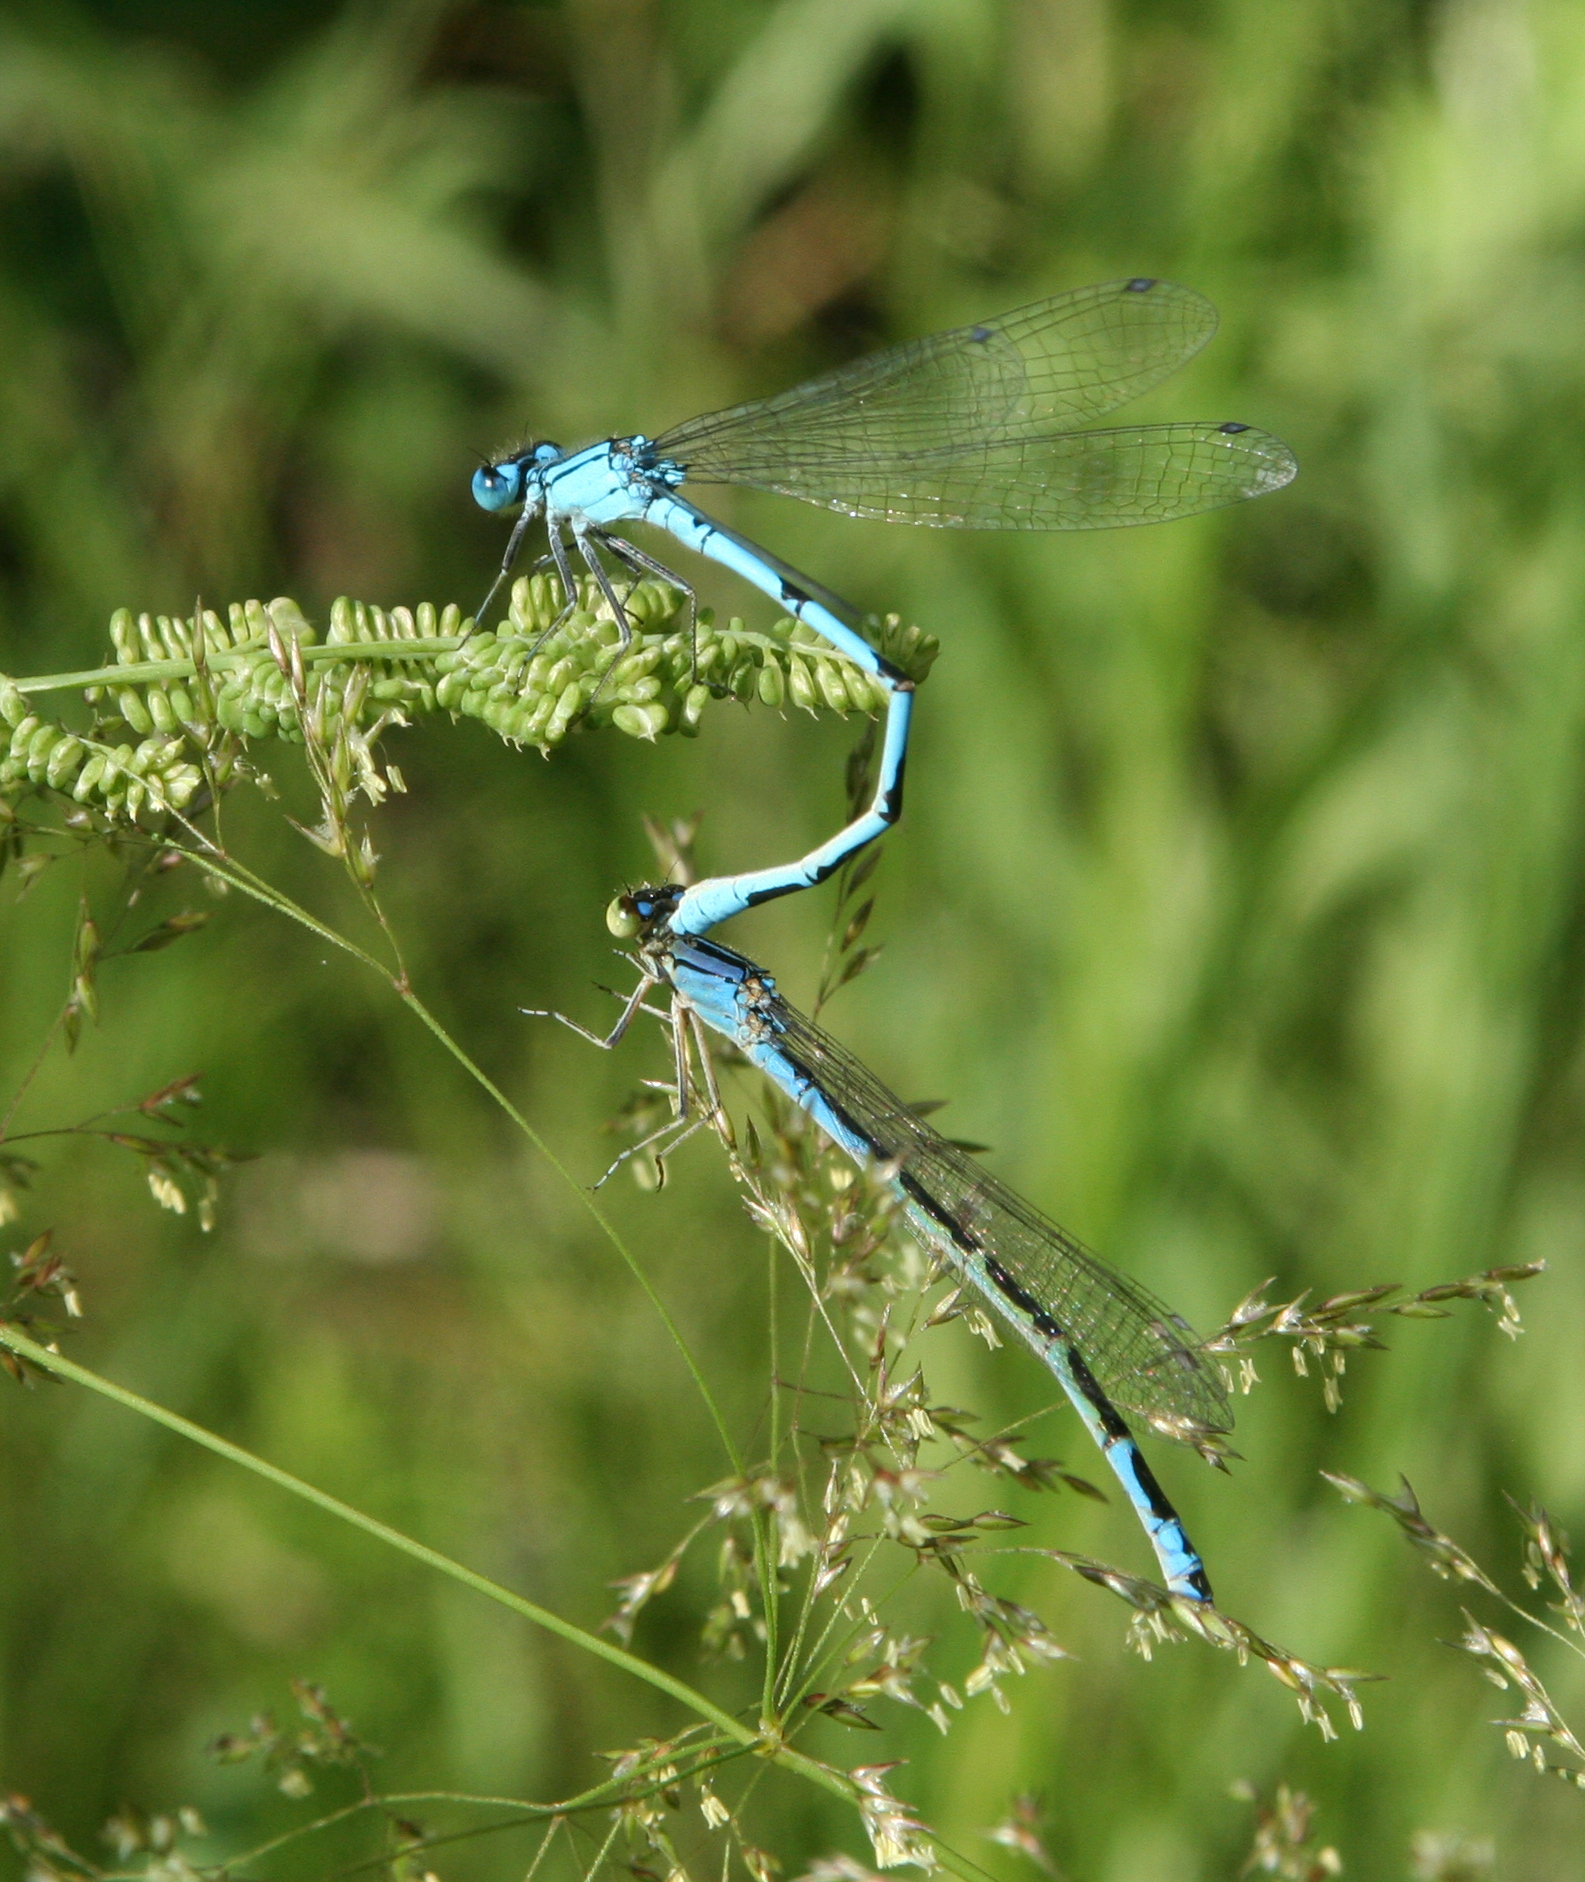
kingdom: Animalia
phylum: Arthropoda
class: Insecta
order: Odonata
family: Coenagrionidae
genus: Enallagma
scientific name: Enallagma cyathigerum
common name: Common blue damselfly
